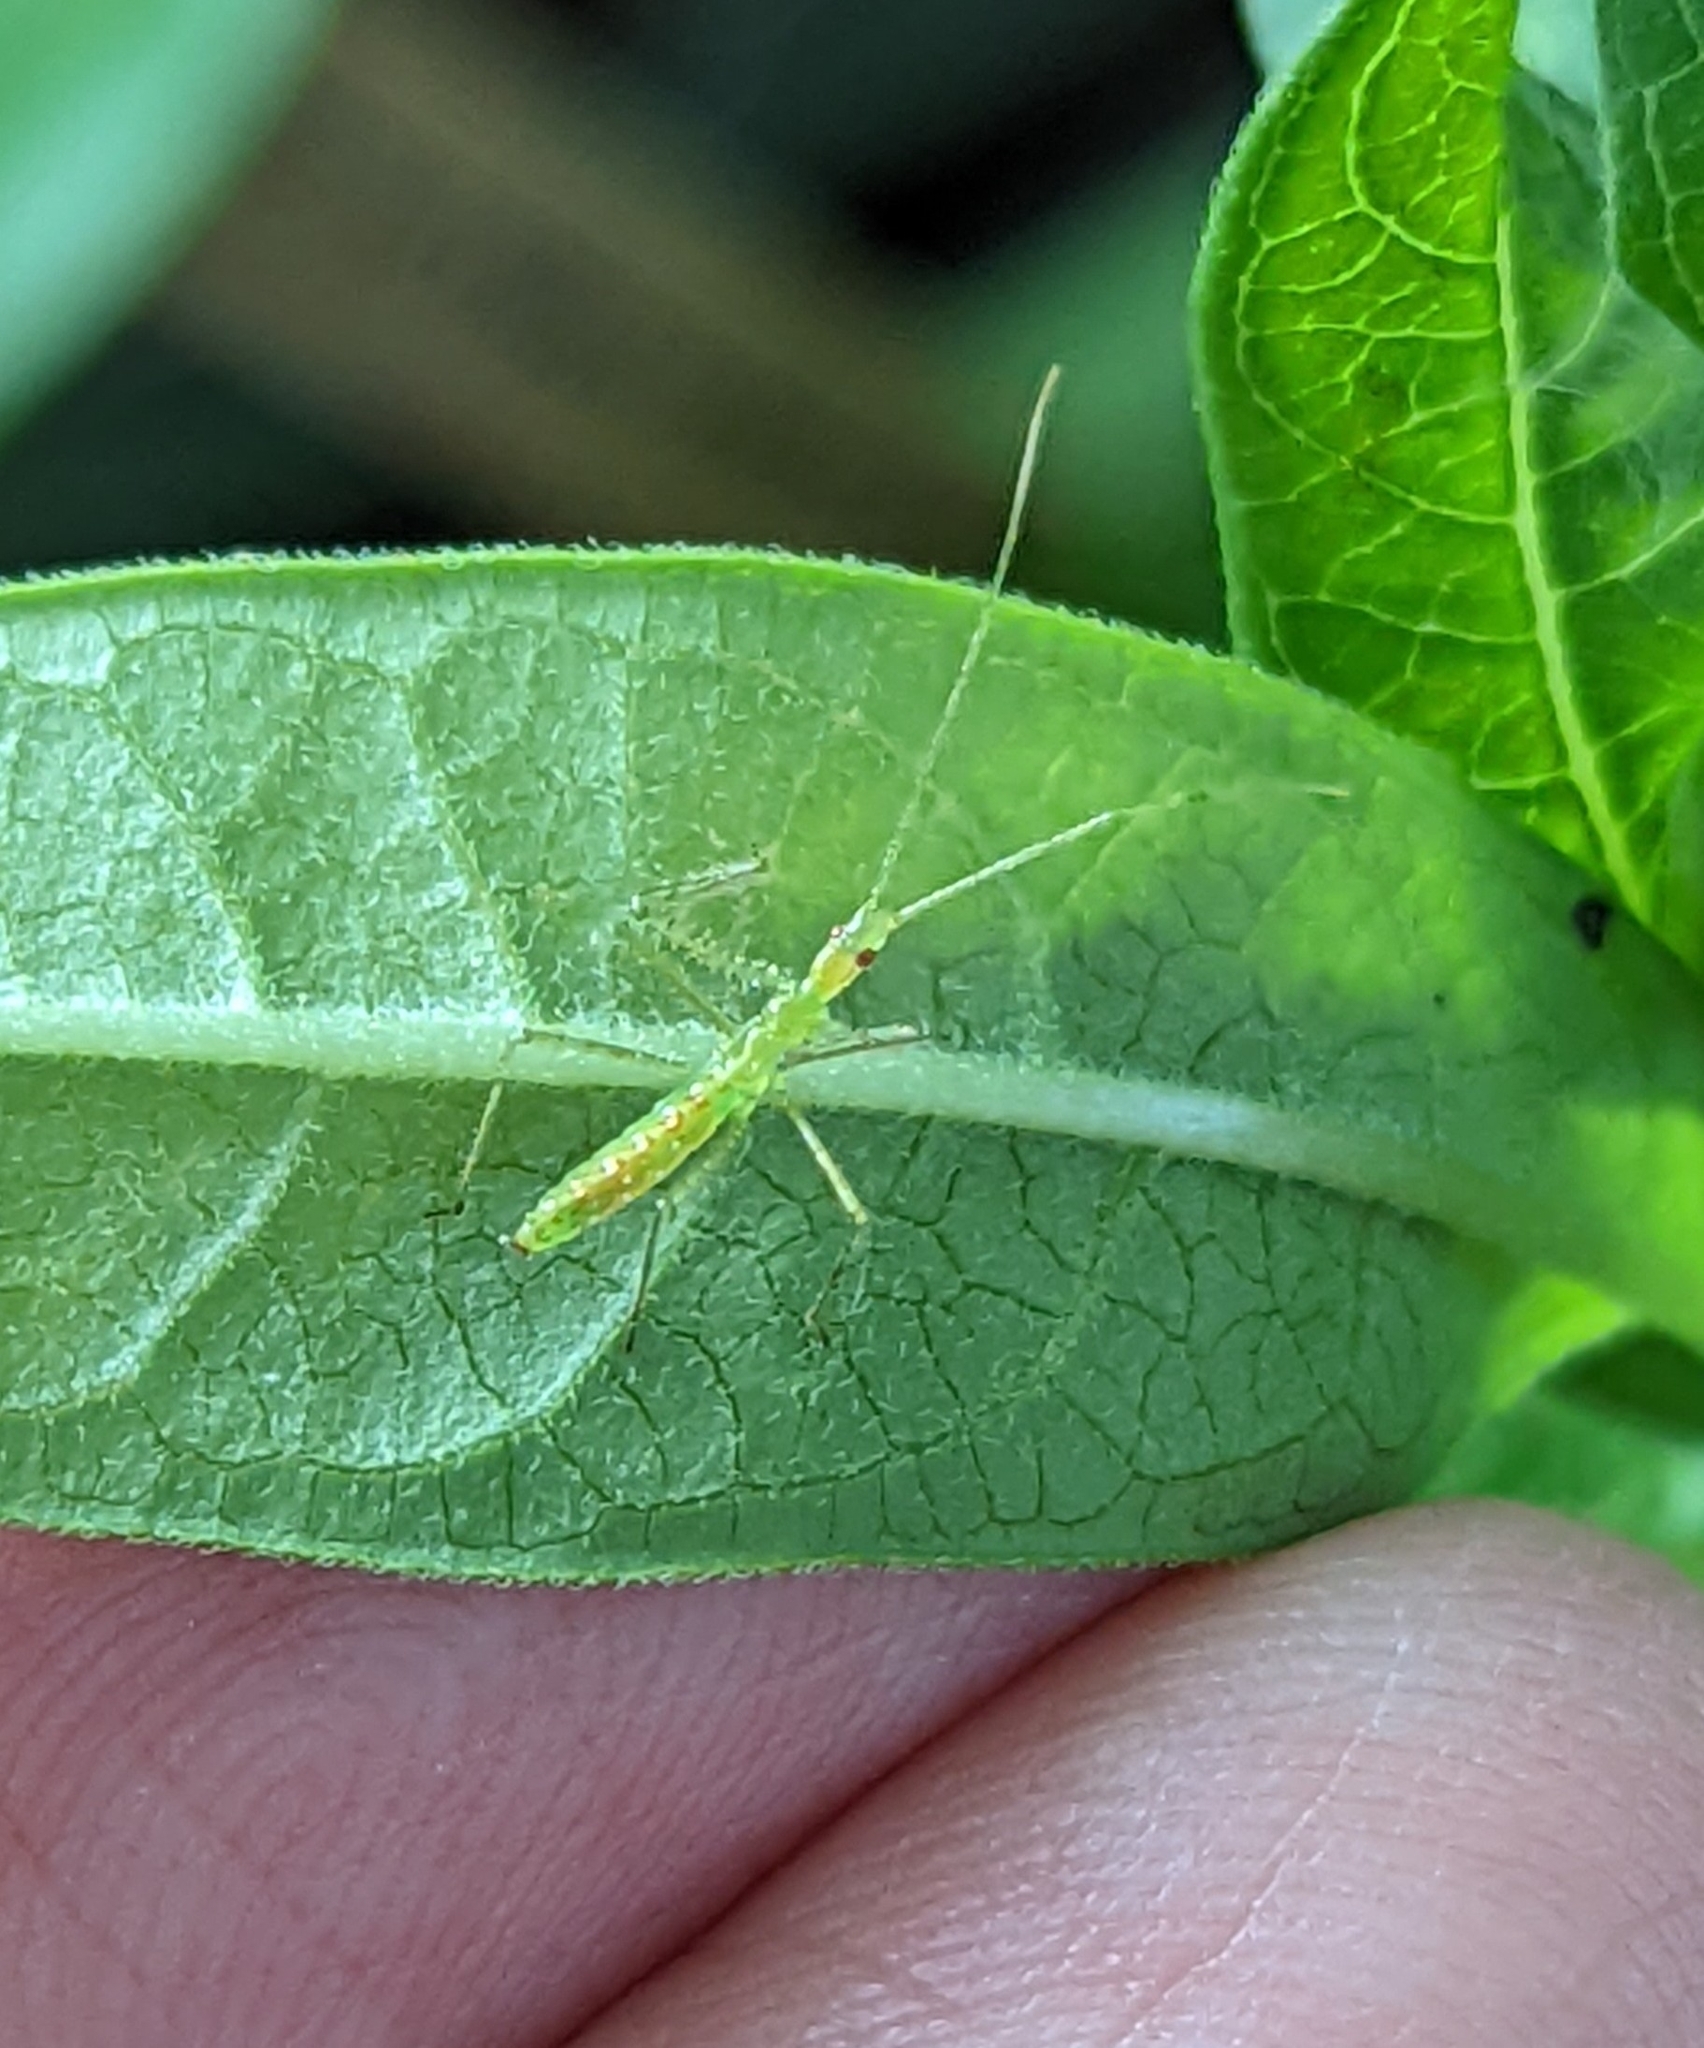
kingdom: Animalia
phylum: Arthropoda
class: Insecta
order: Hemiptera
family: Reduviidae
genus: Zelus
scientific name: Zelus luridus
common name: Pale green assassin bug
